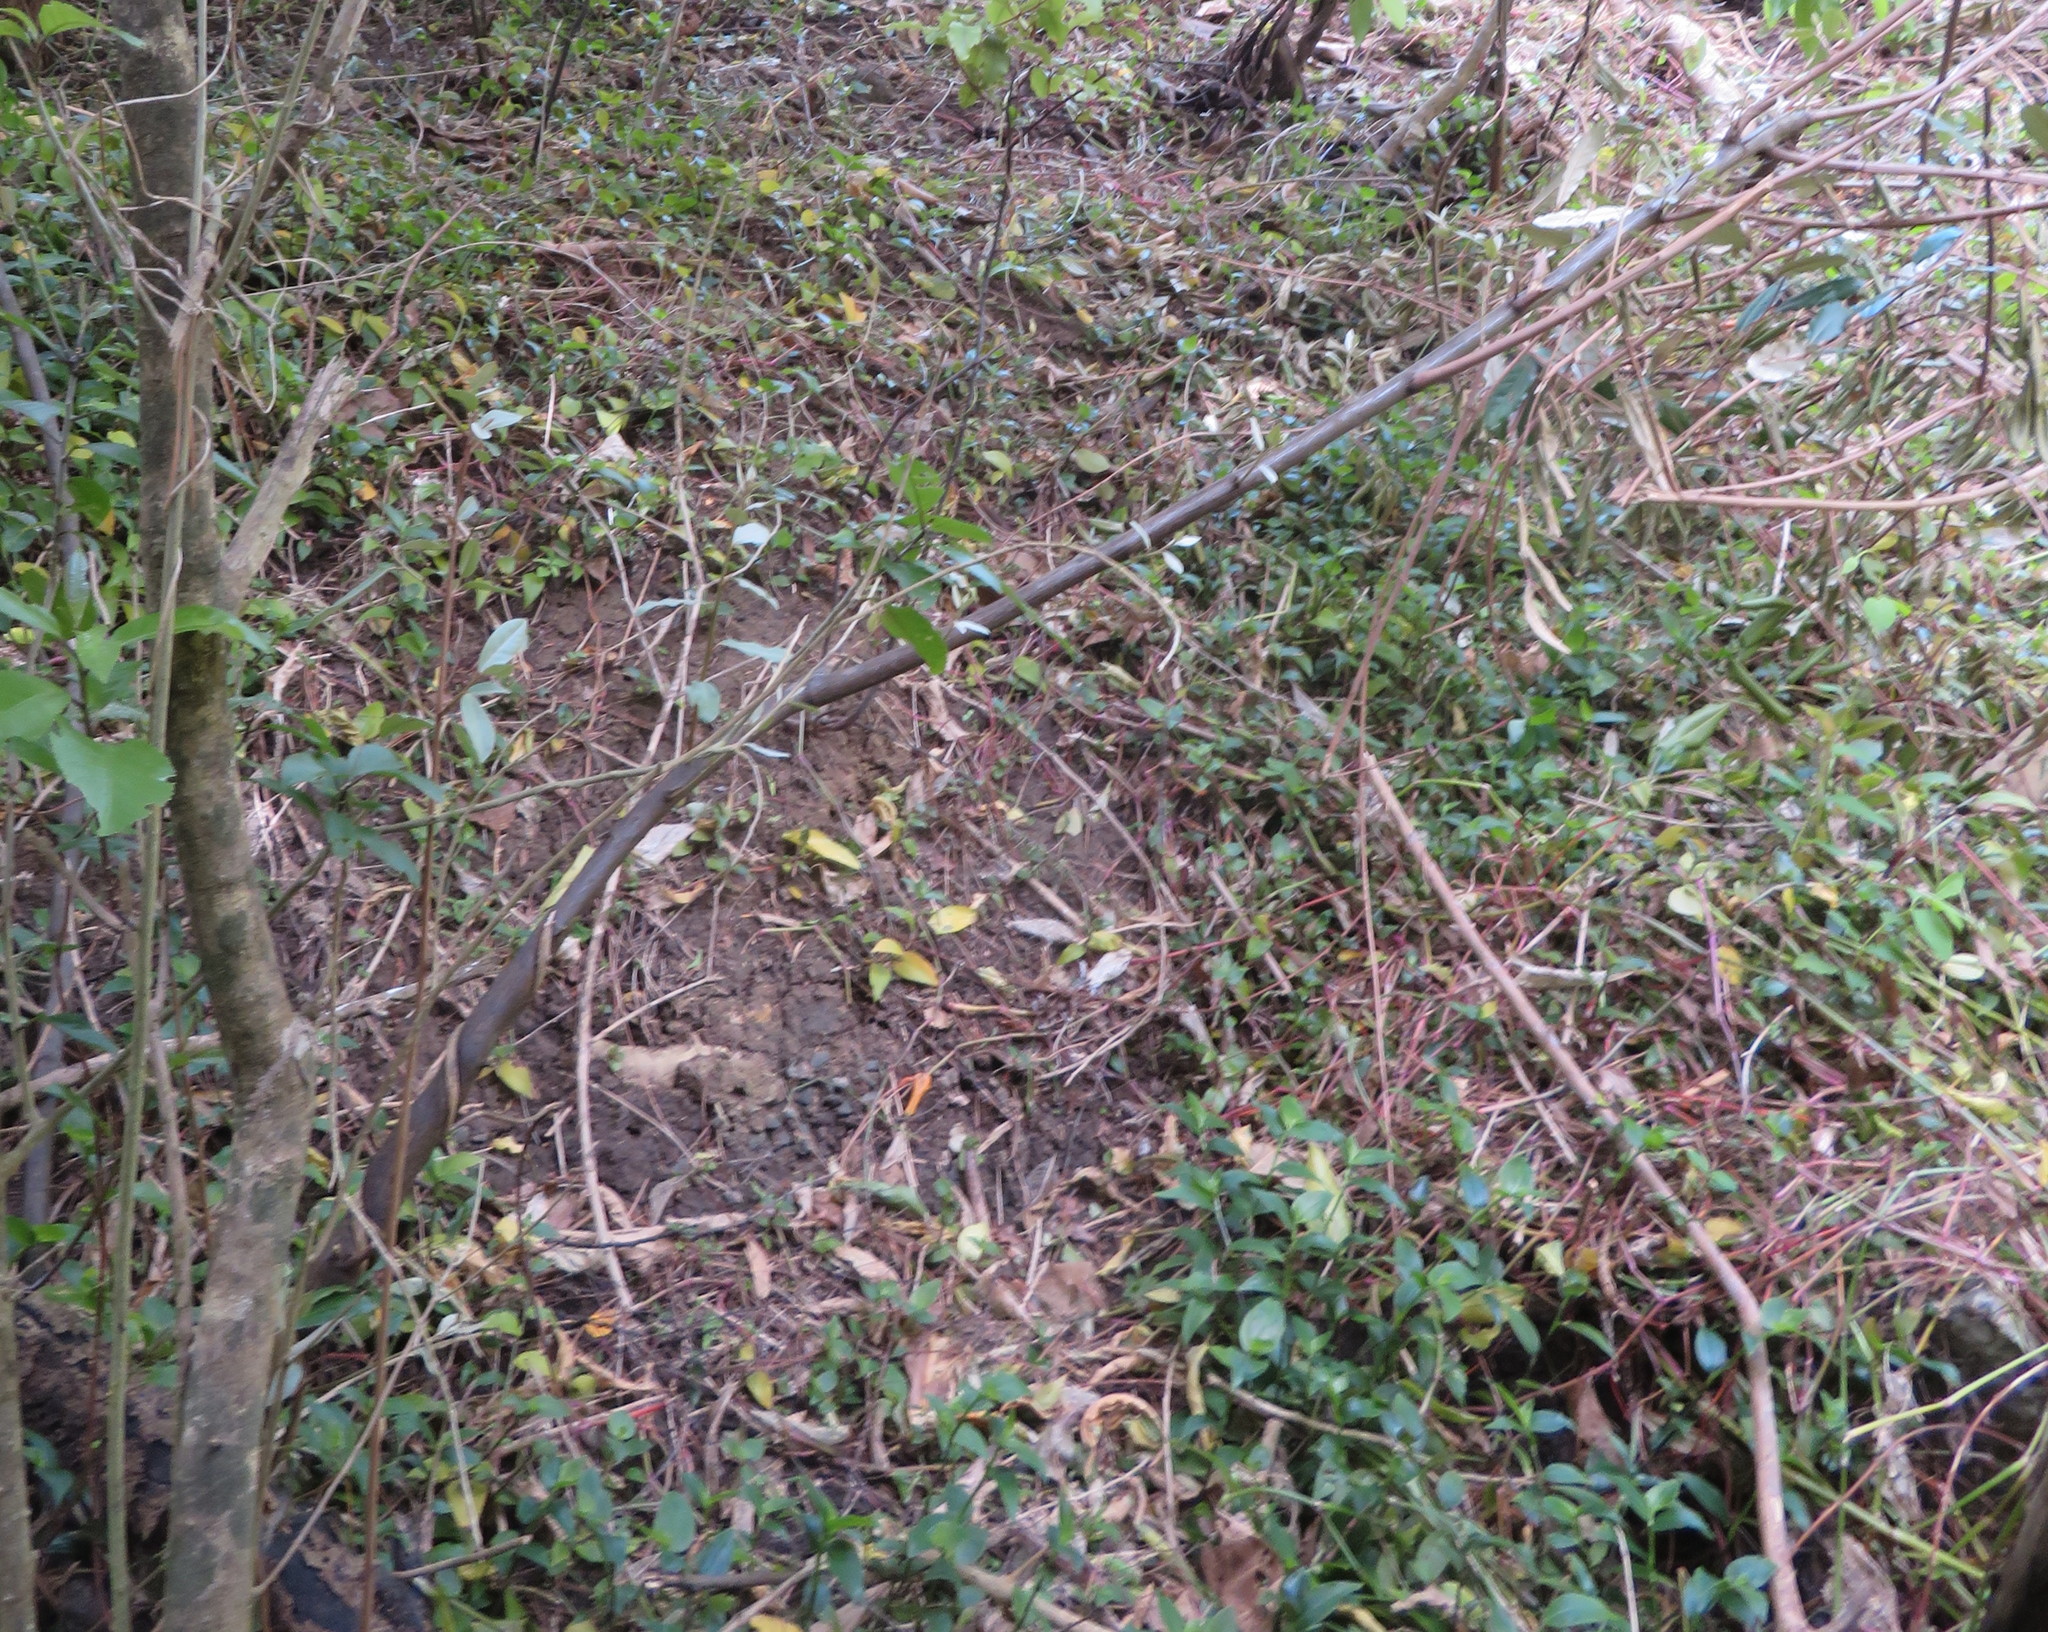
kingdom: Plantae
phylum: Tracheophyta
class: Magnoliopsida
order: Malpighiales
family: Violaceae
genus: Melicytus
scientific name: Melicytus ramiflorus
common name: Mahoe
